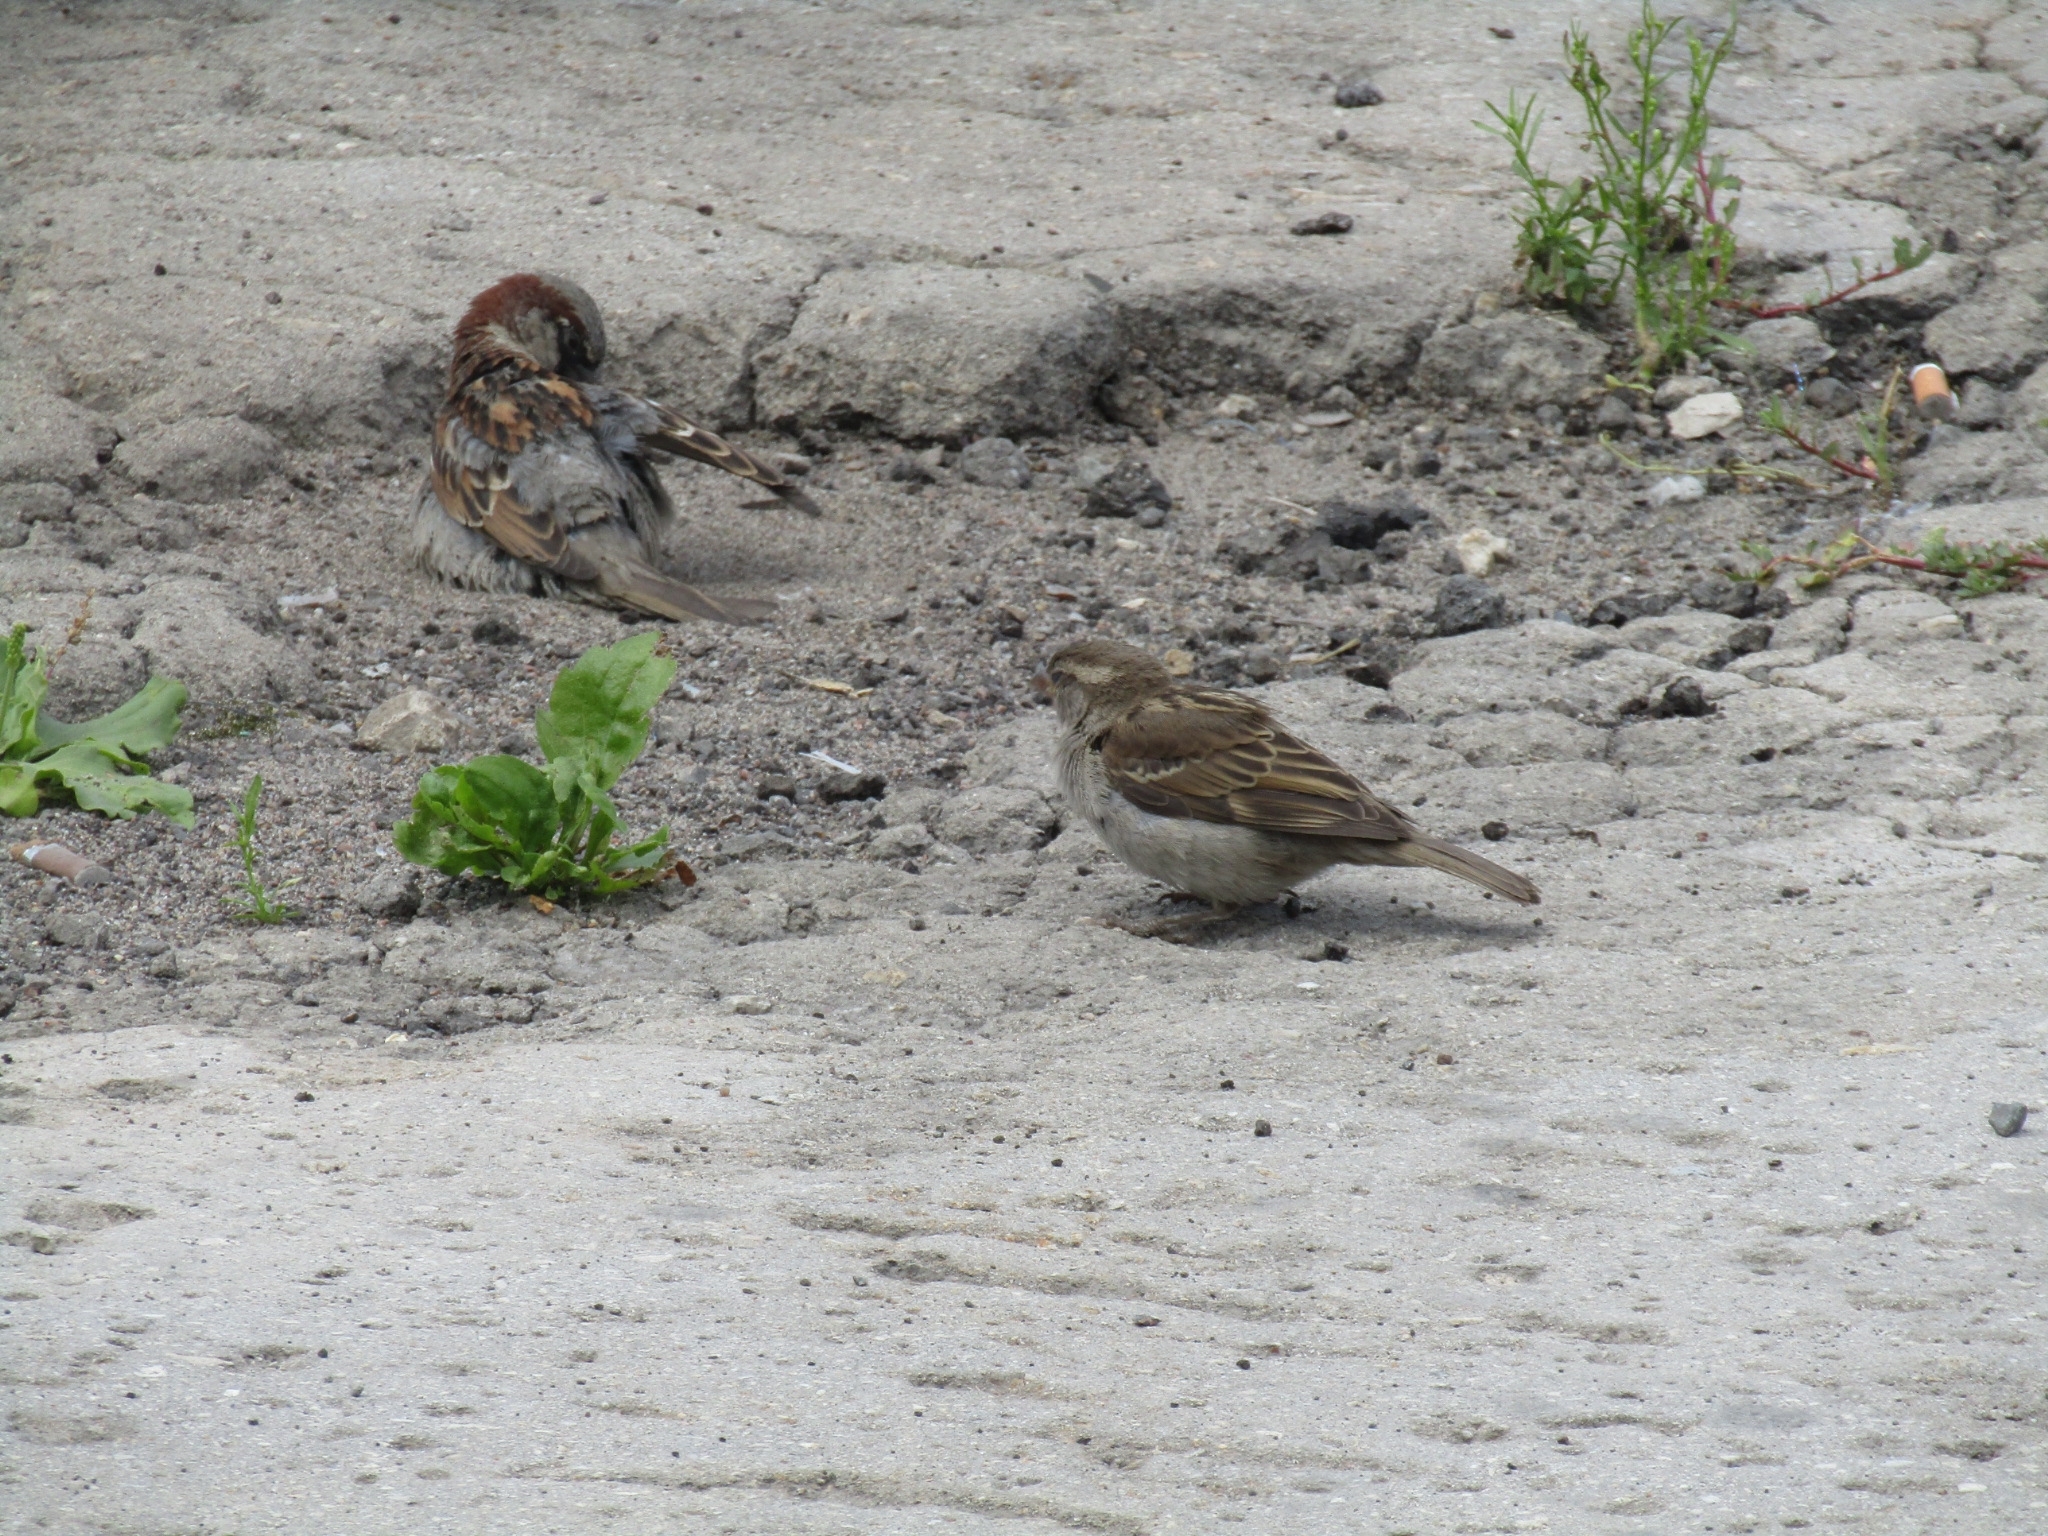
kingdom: Animalia
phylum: Chordata
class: Aves
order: Passeriformes
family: Passeridae
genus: Passer
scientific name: Passer domesticus
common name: House sparrow
